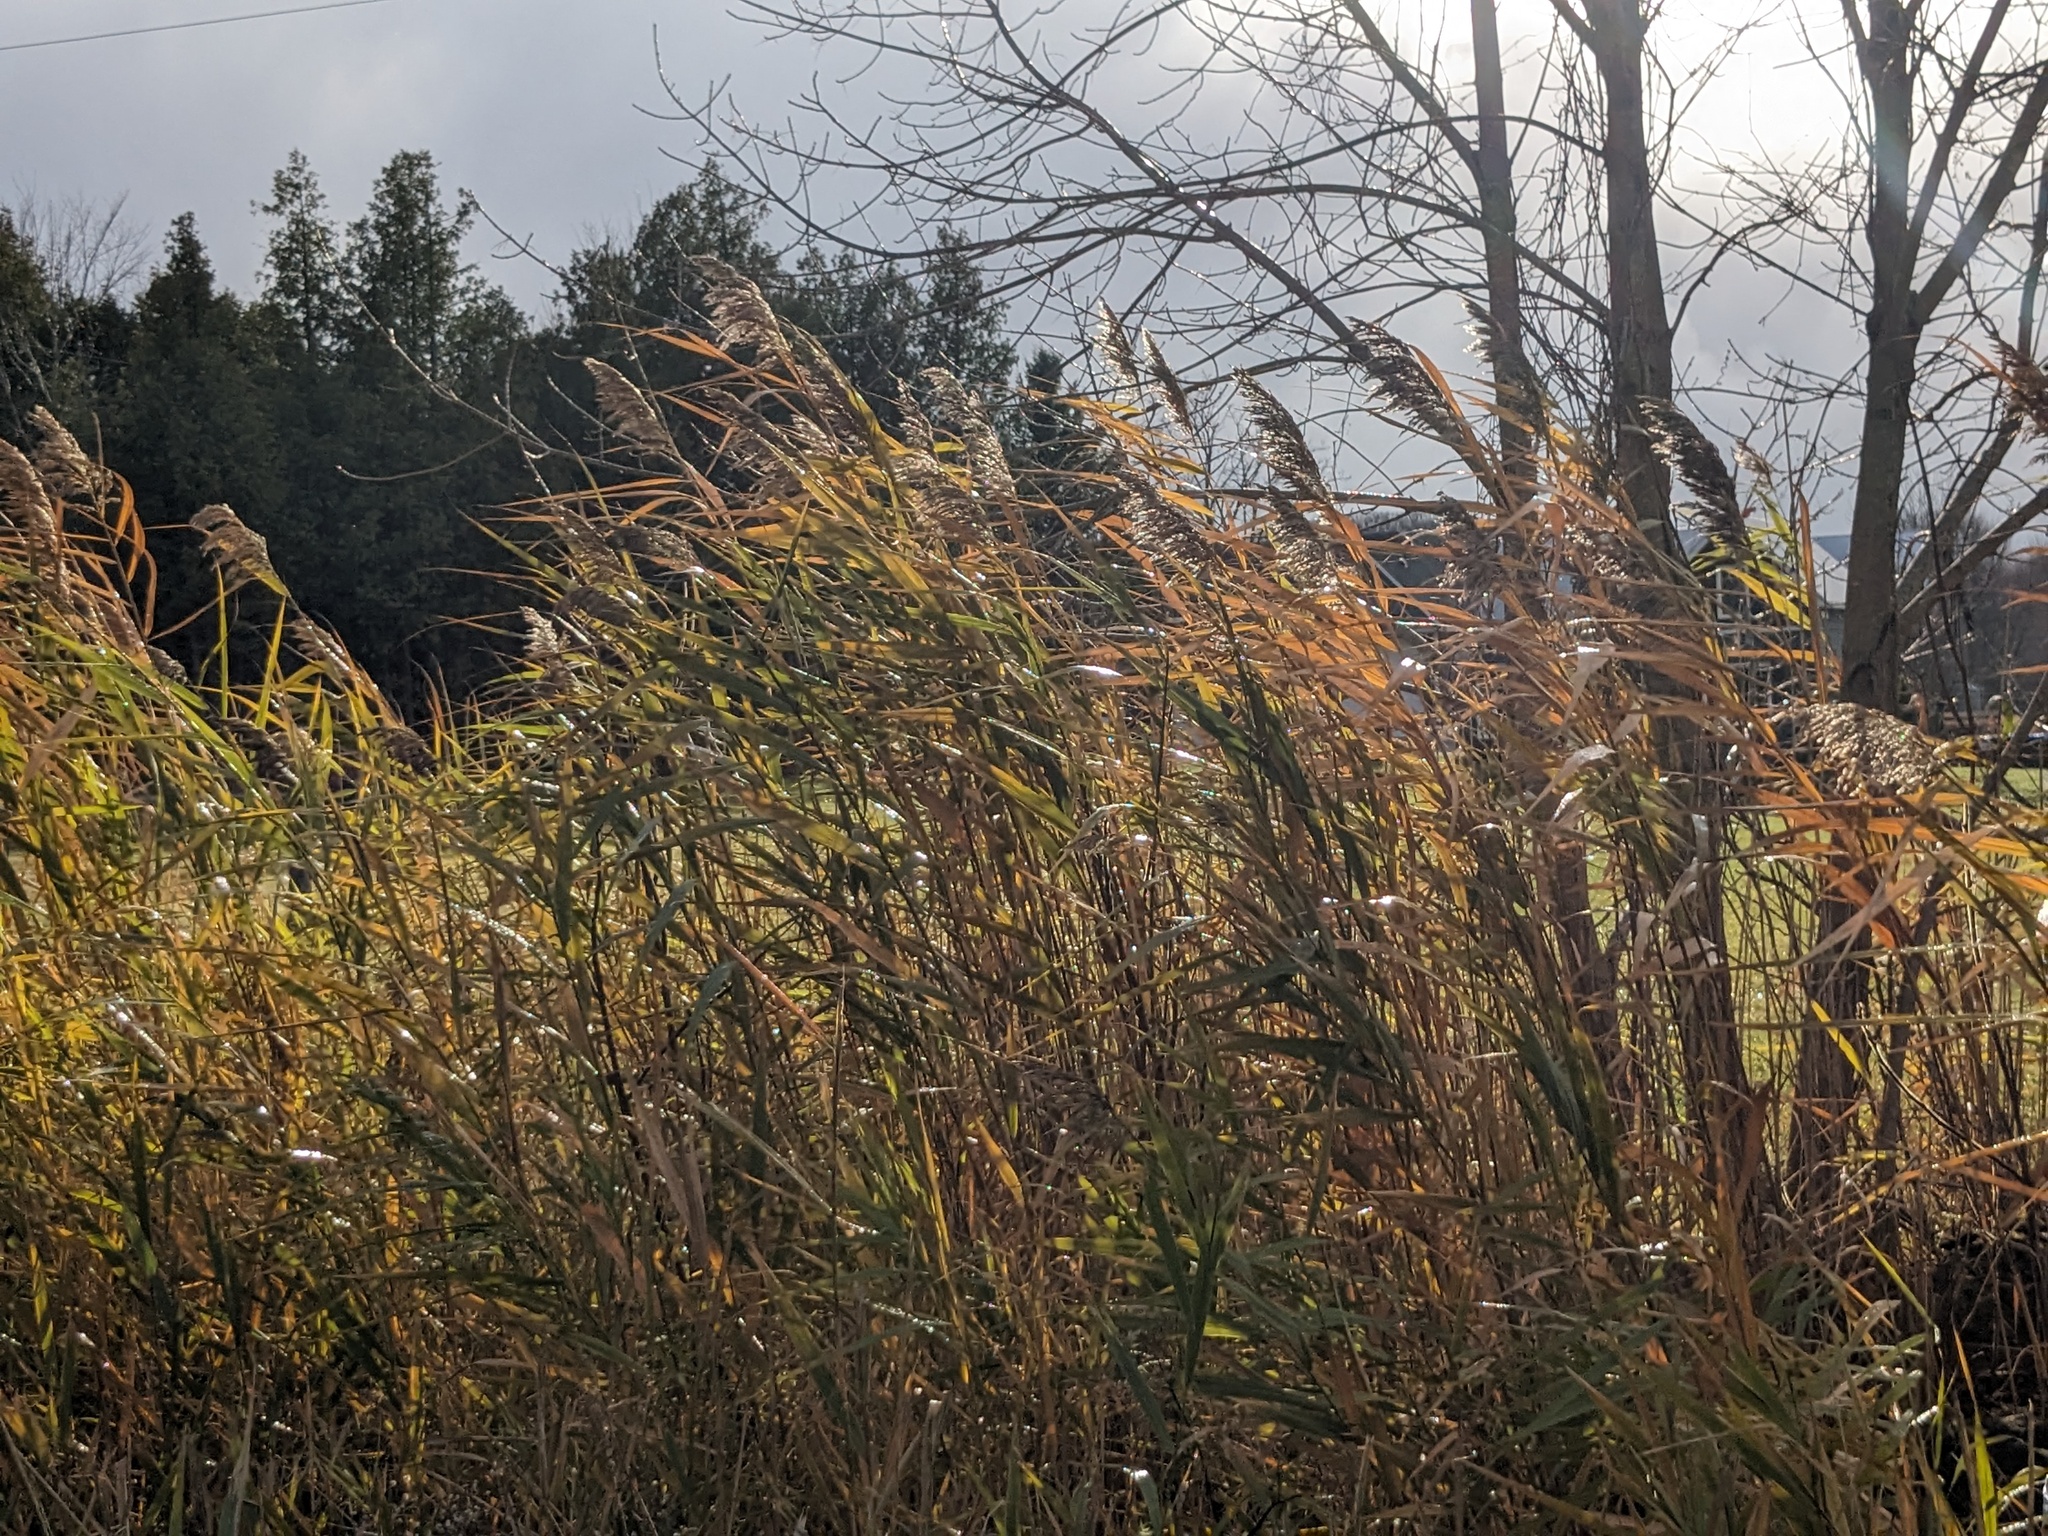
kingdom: Plantae
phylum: Tracheophyta
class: Liliopsida
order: Poales
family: Poaceae
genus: Phragmites
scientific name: Phragmites australis
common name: Common reed
